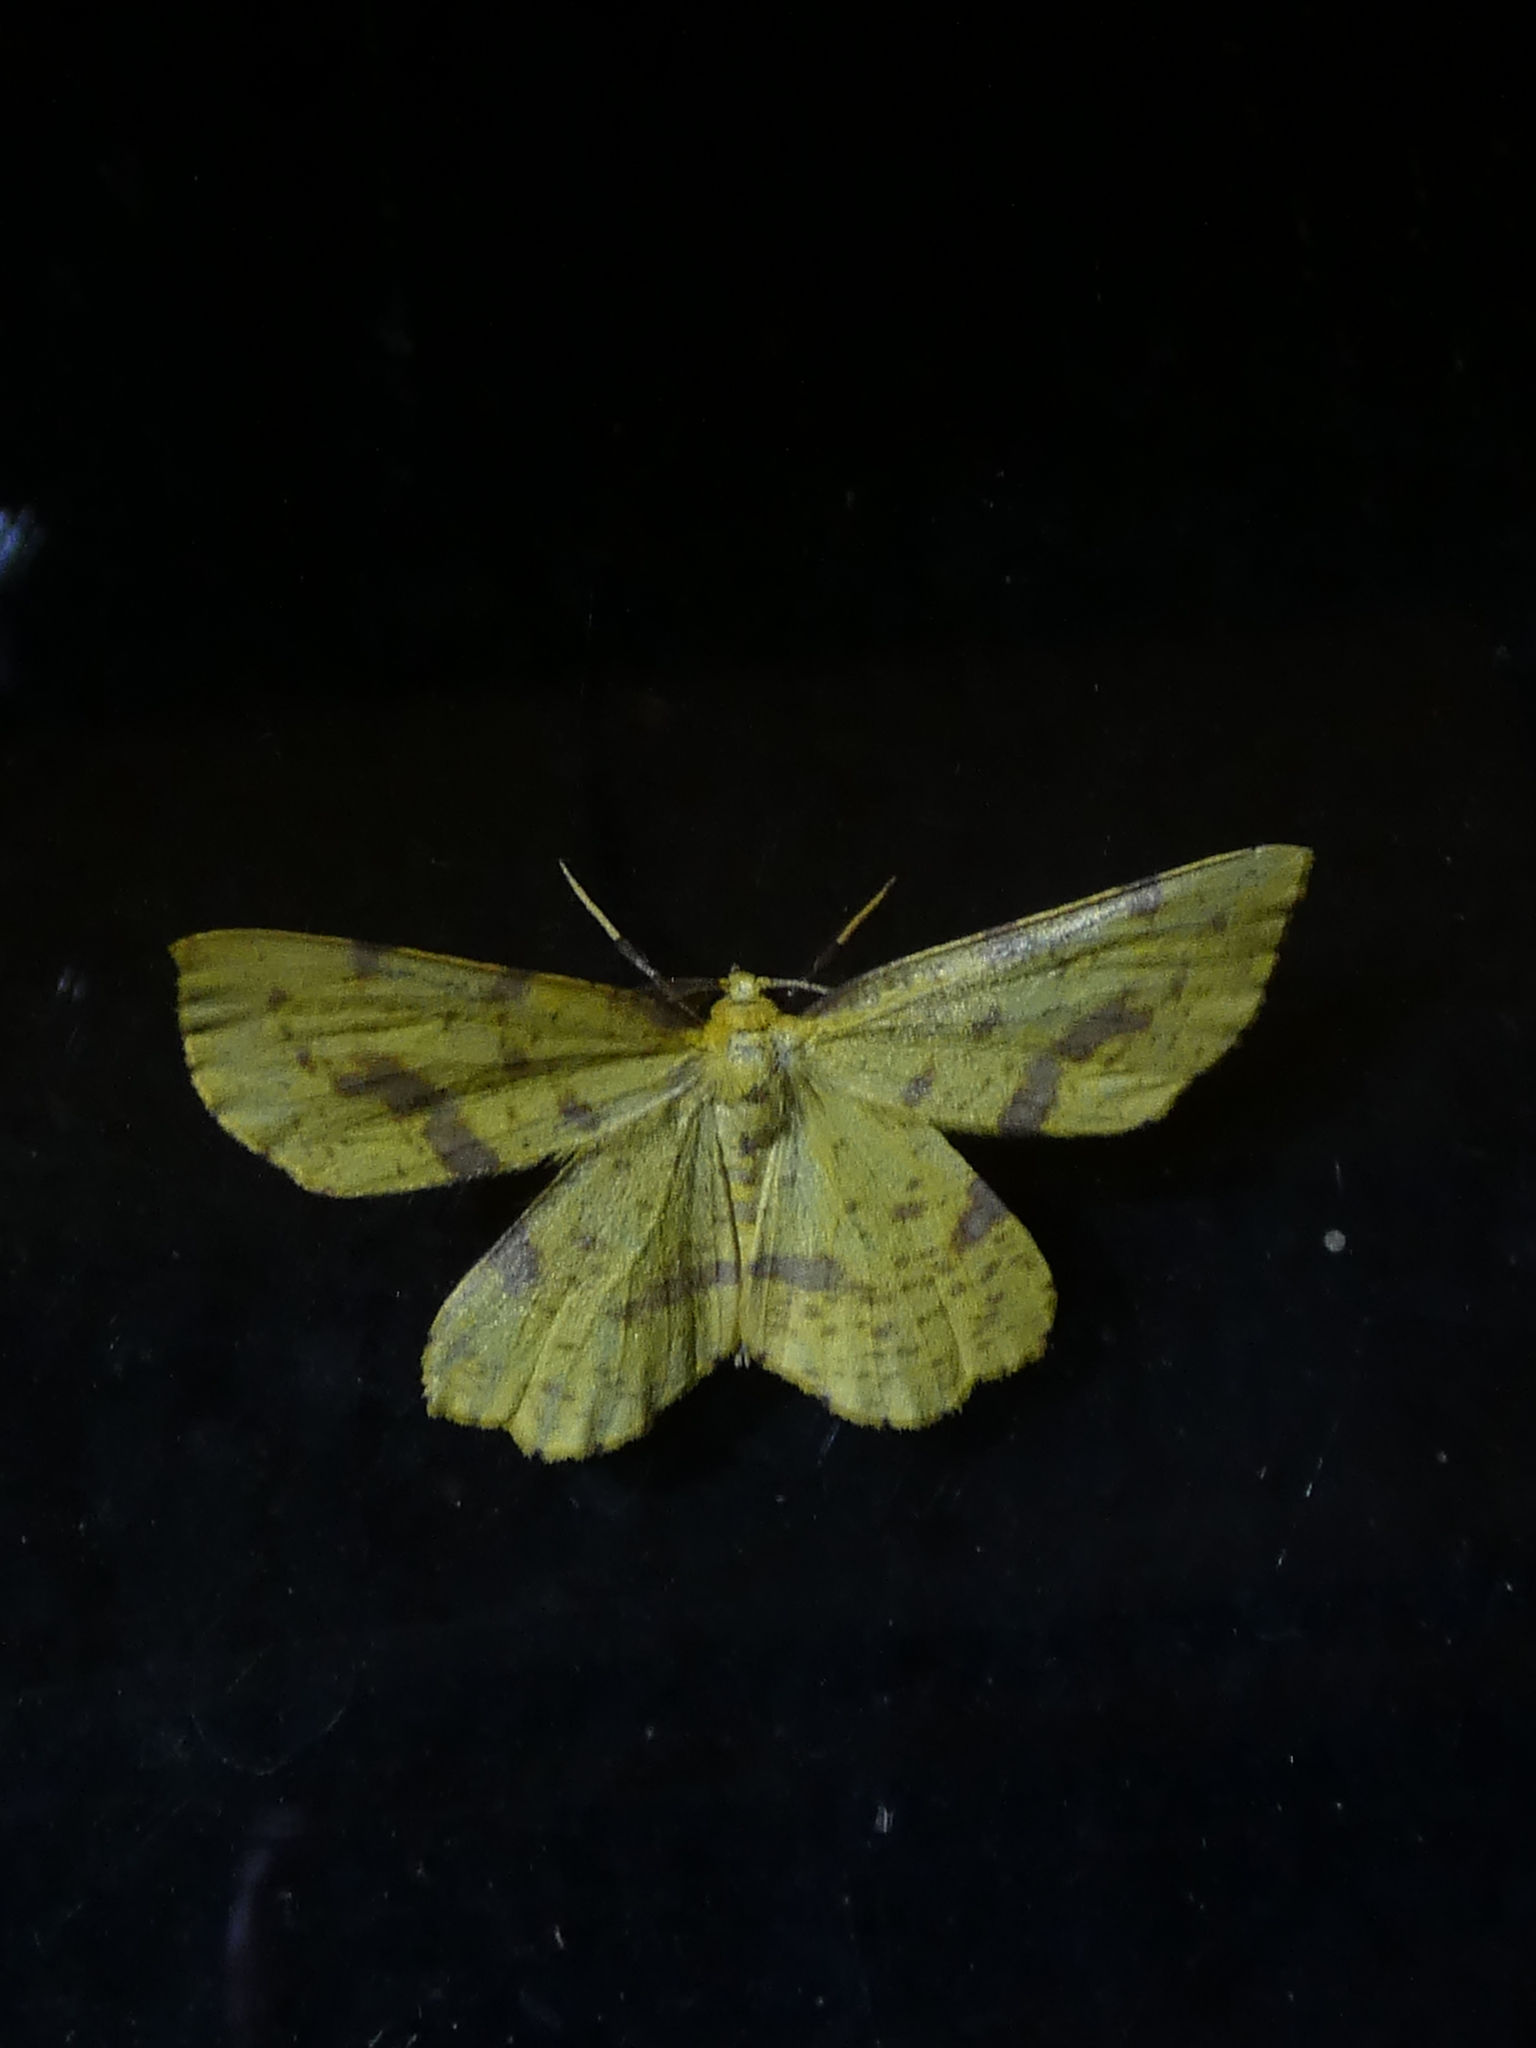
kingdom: Animalia
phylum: Arthropoda
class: Insecta
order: Lepidoptera
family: Geometridae
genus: Xanthotype
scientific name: Xanthotype
